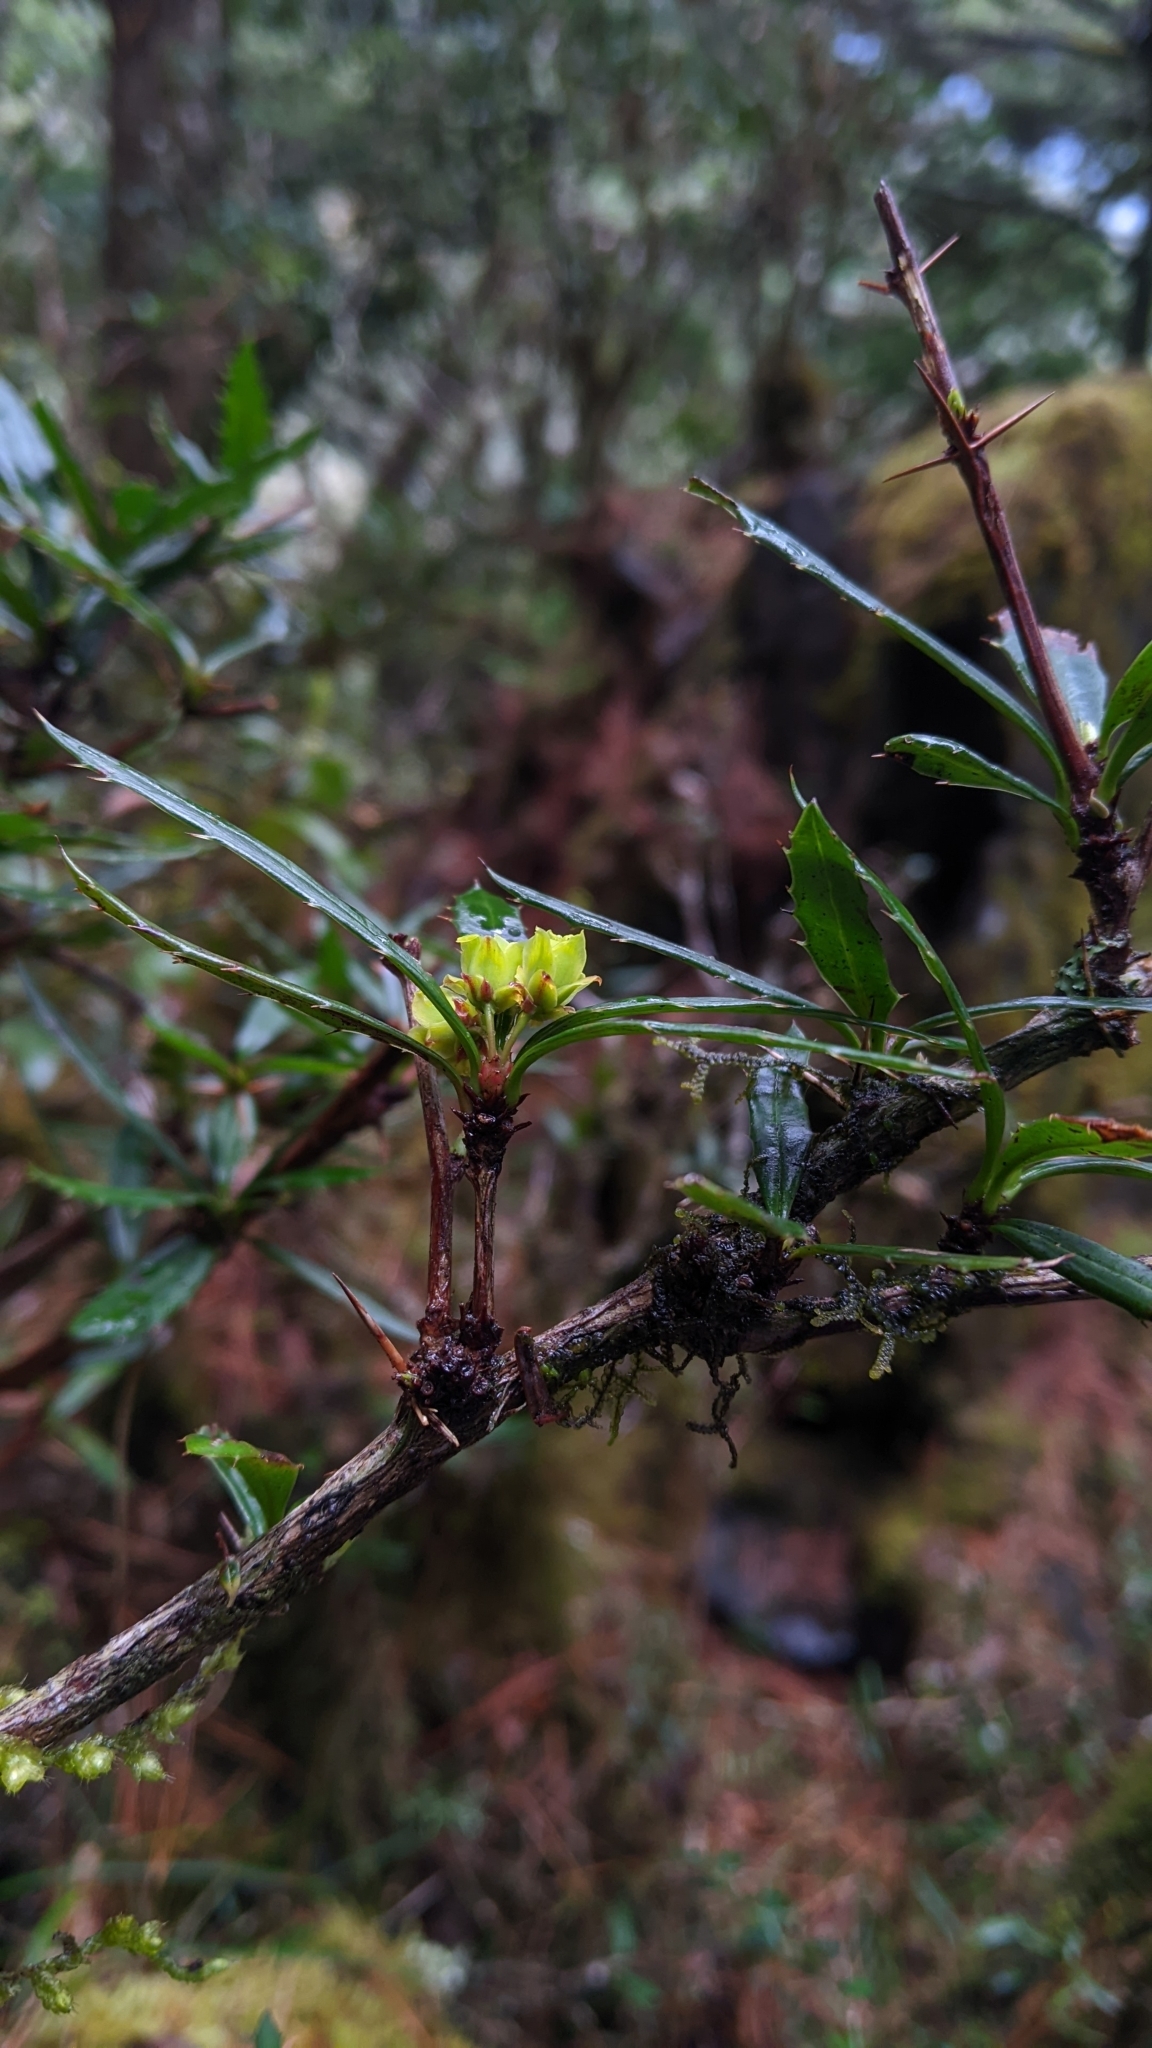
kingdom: Plantae
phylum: Tracheophyta
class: Magnoliopsida
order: Ranunculales
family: Berberidaceae
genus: Berberis
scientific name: Berberis kawakamii
